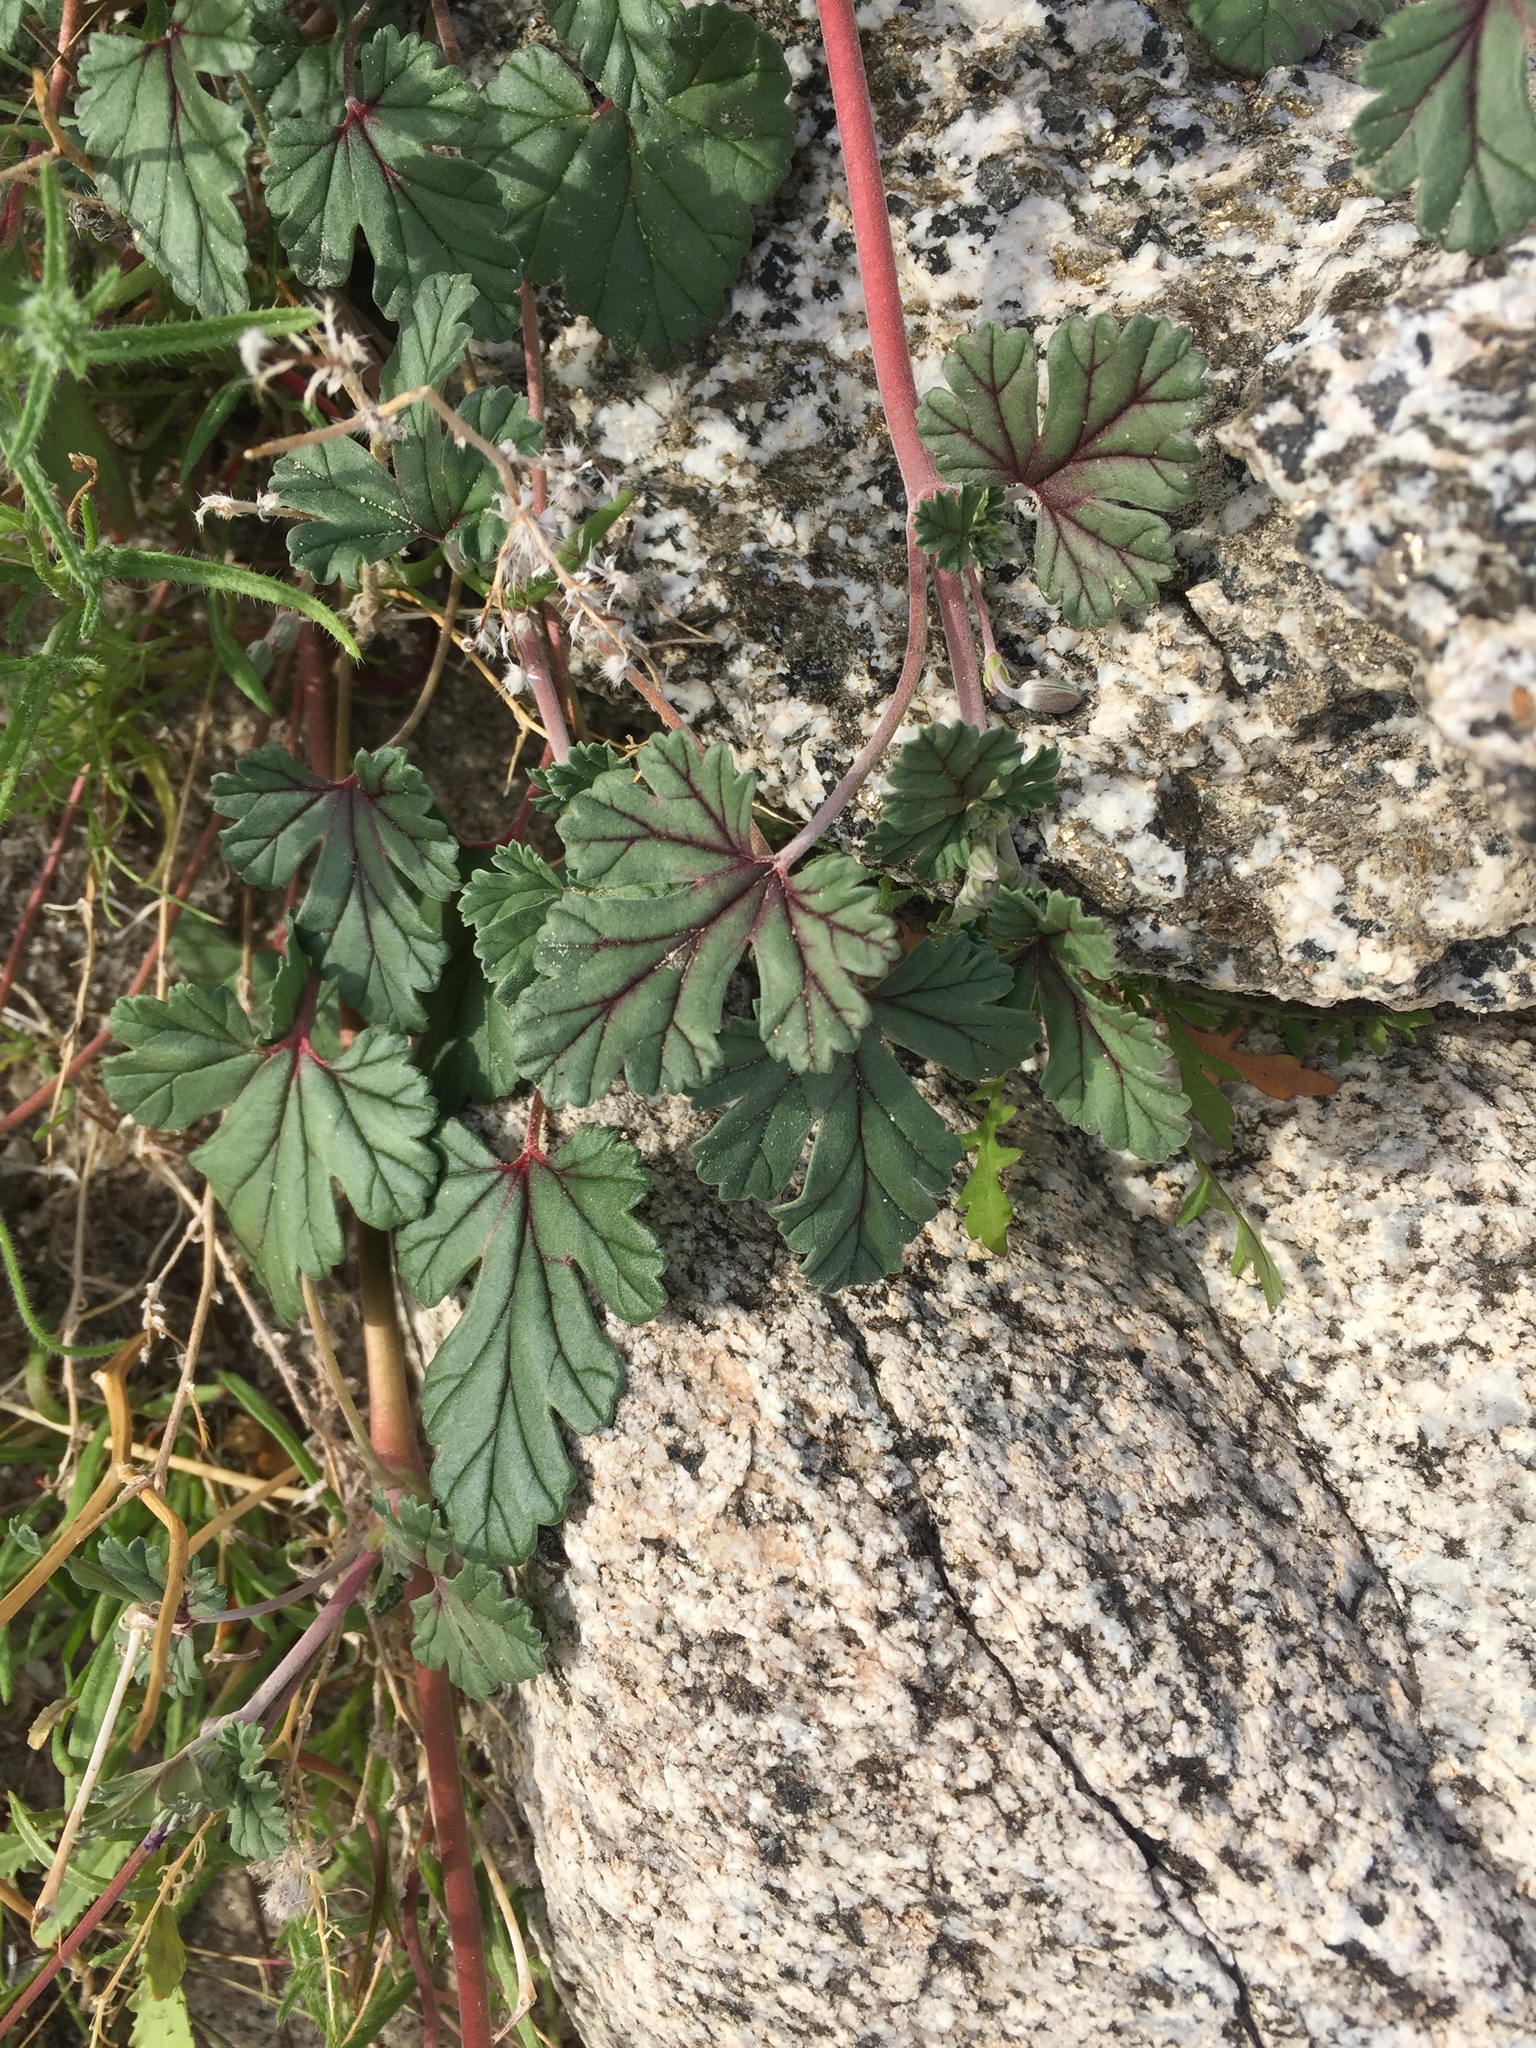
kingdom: Plantae
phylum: Tracheophyta
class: Magnoliopsida
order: Geraniales
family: Geraniaceae
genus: Erodium
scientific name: Erodium texanum
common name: Texas stork's-bill
